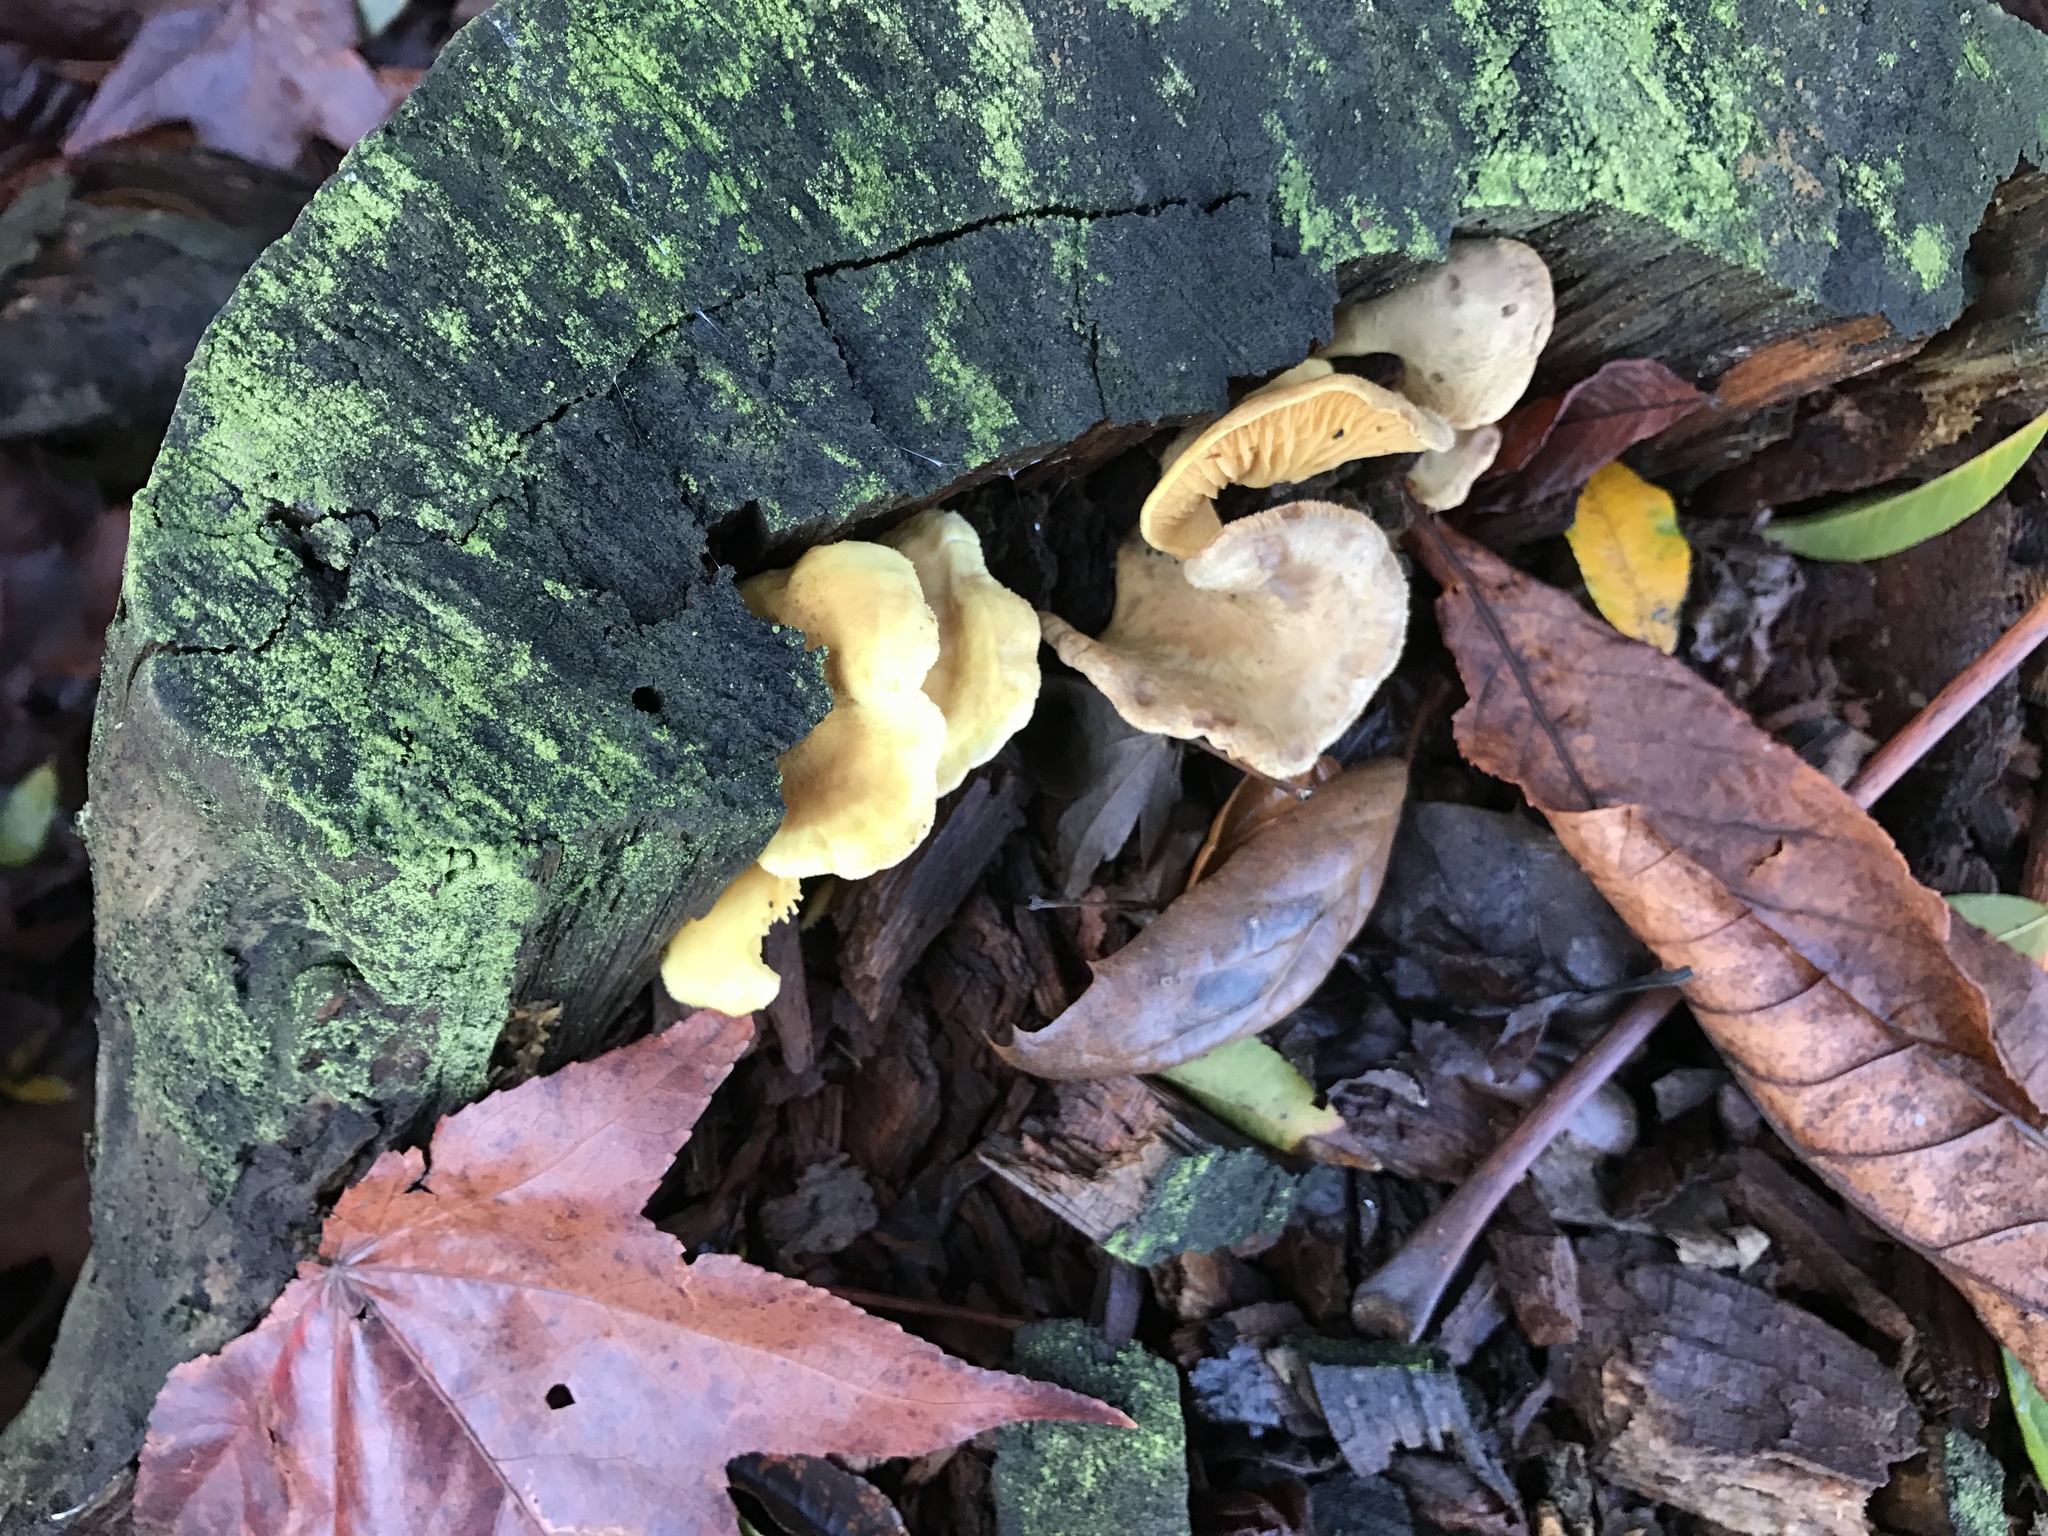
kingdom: Fungi
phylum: Basidiomycota
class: Agaricomycetes
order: Boletales
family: Tapinellaceae
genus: Tapinella
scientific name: Tapinella panuoides
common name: Oyster rollrim
